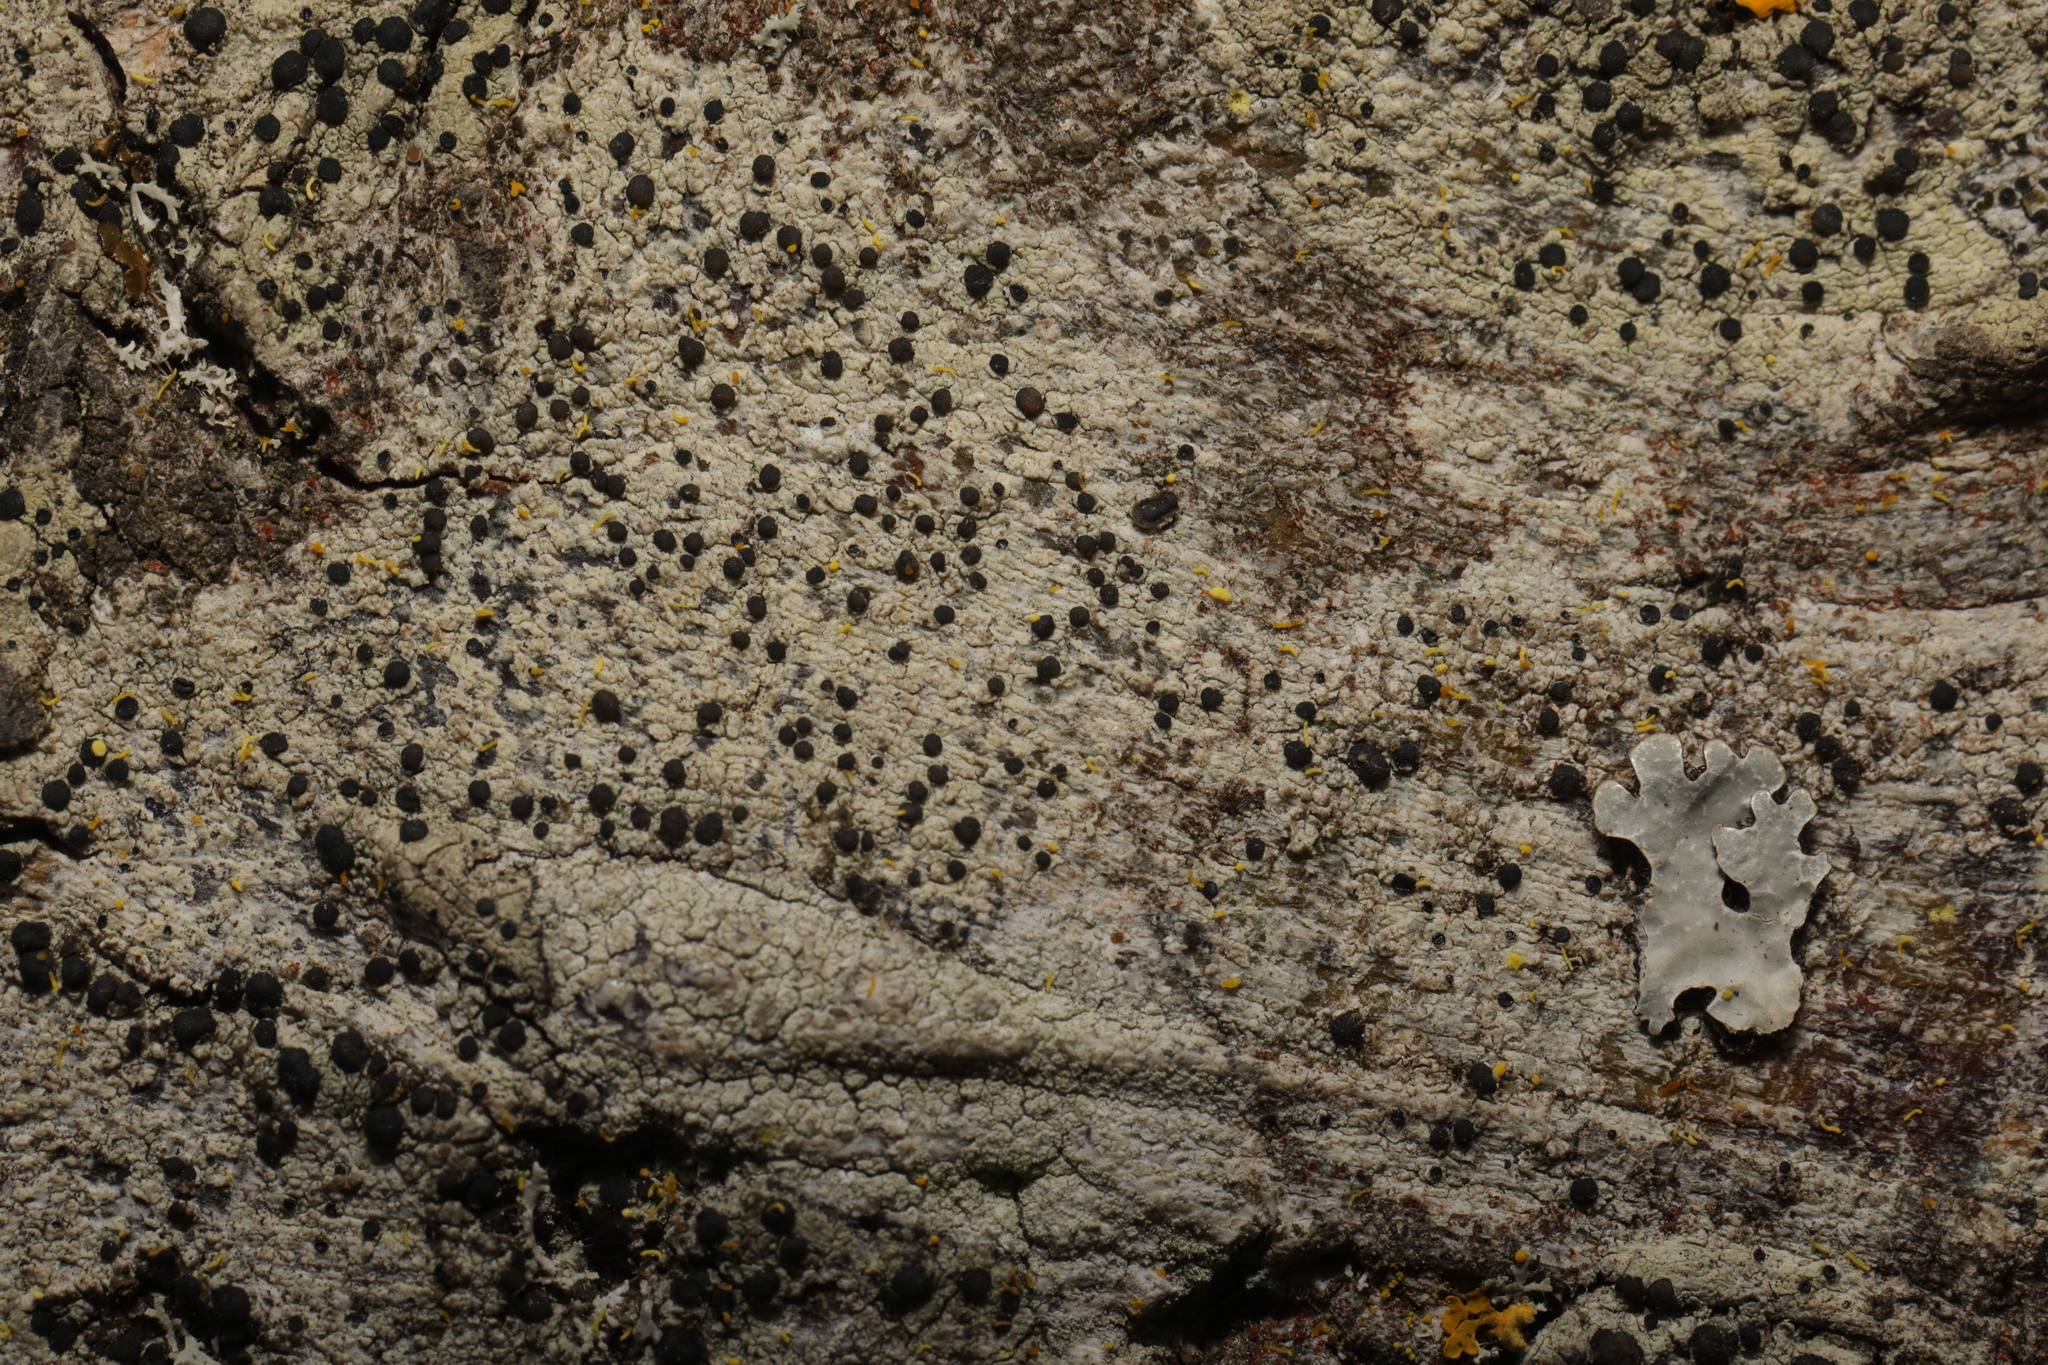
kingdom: Fungi
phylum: Ascomycota
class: Lecanoromycetes
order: Lecanorales
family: Lecanoraceae
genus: Lecidella
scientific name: Lecidella elaeochroma
